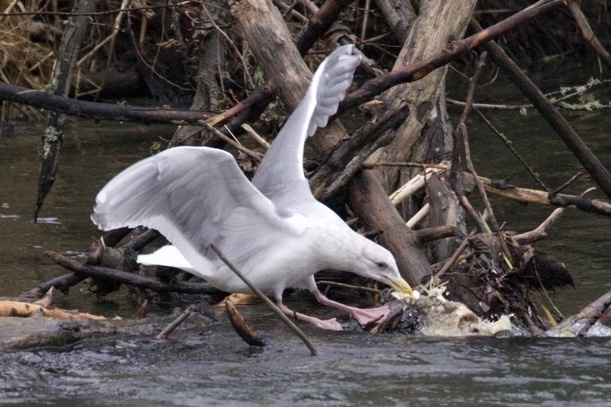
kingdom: Animalia
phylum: Chordata
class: Aves
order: Charadriiformes
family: Laridae
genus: Larus
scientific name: Larus glaucescens
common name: Glaucous-winged gull
